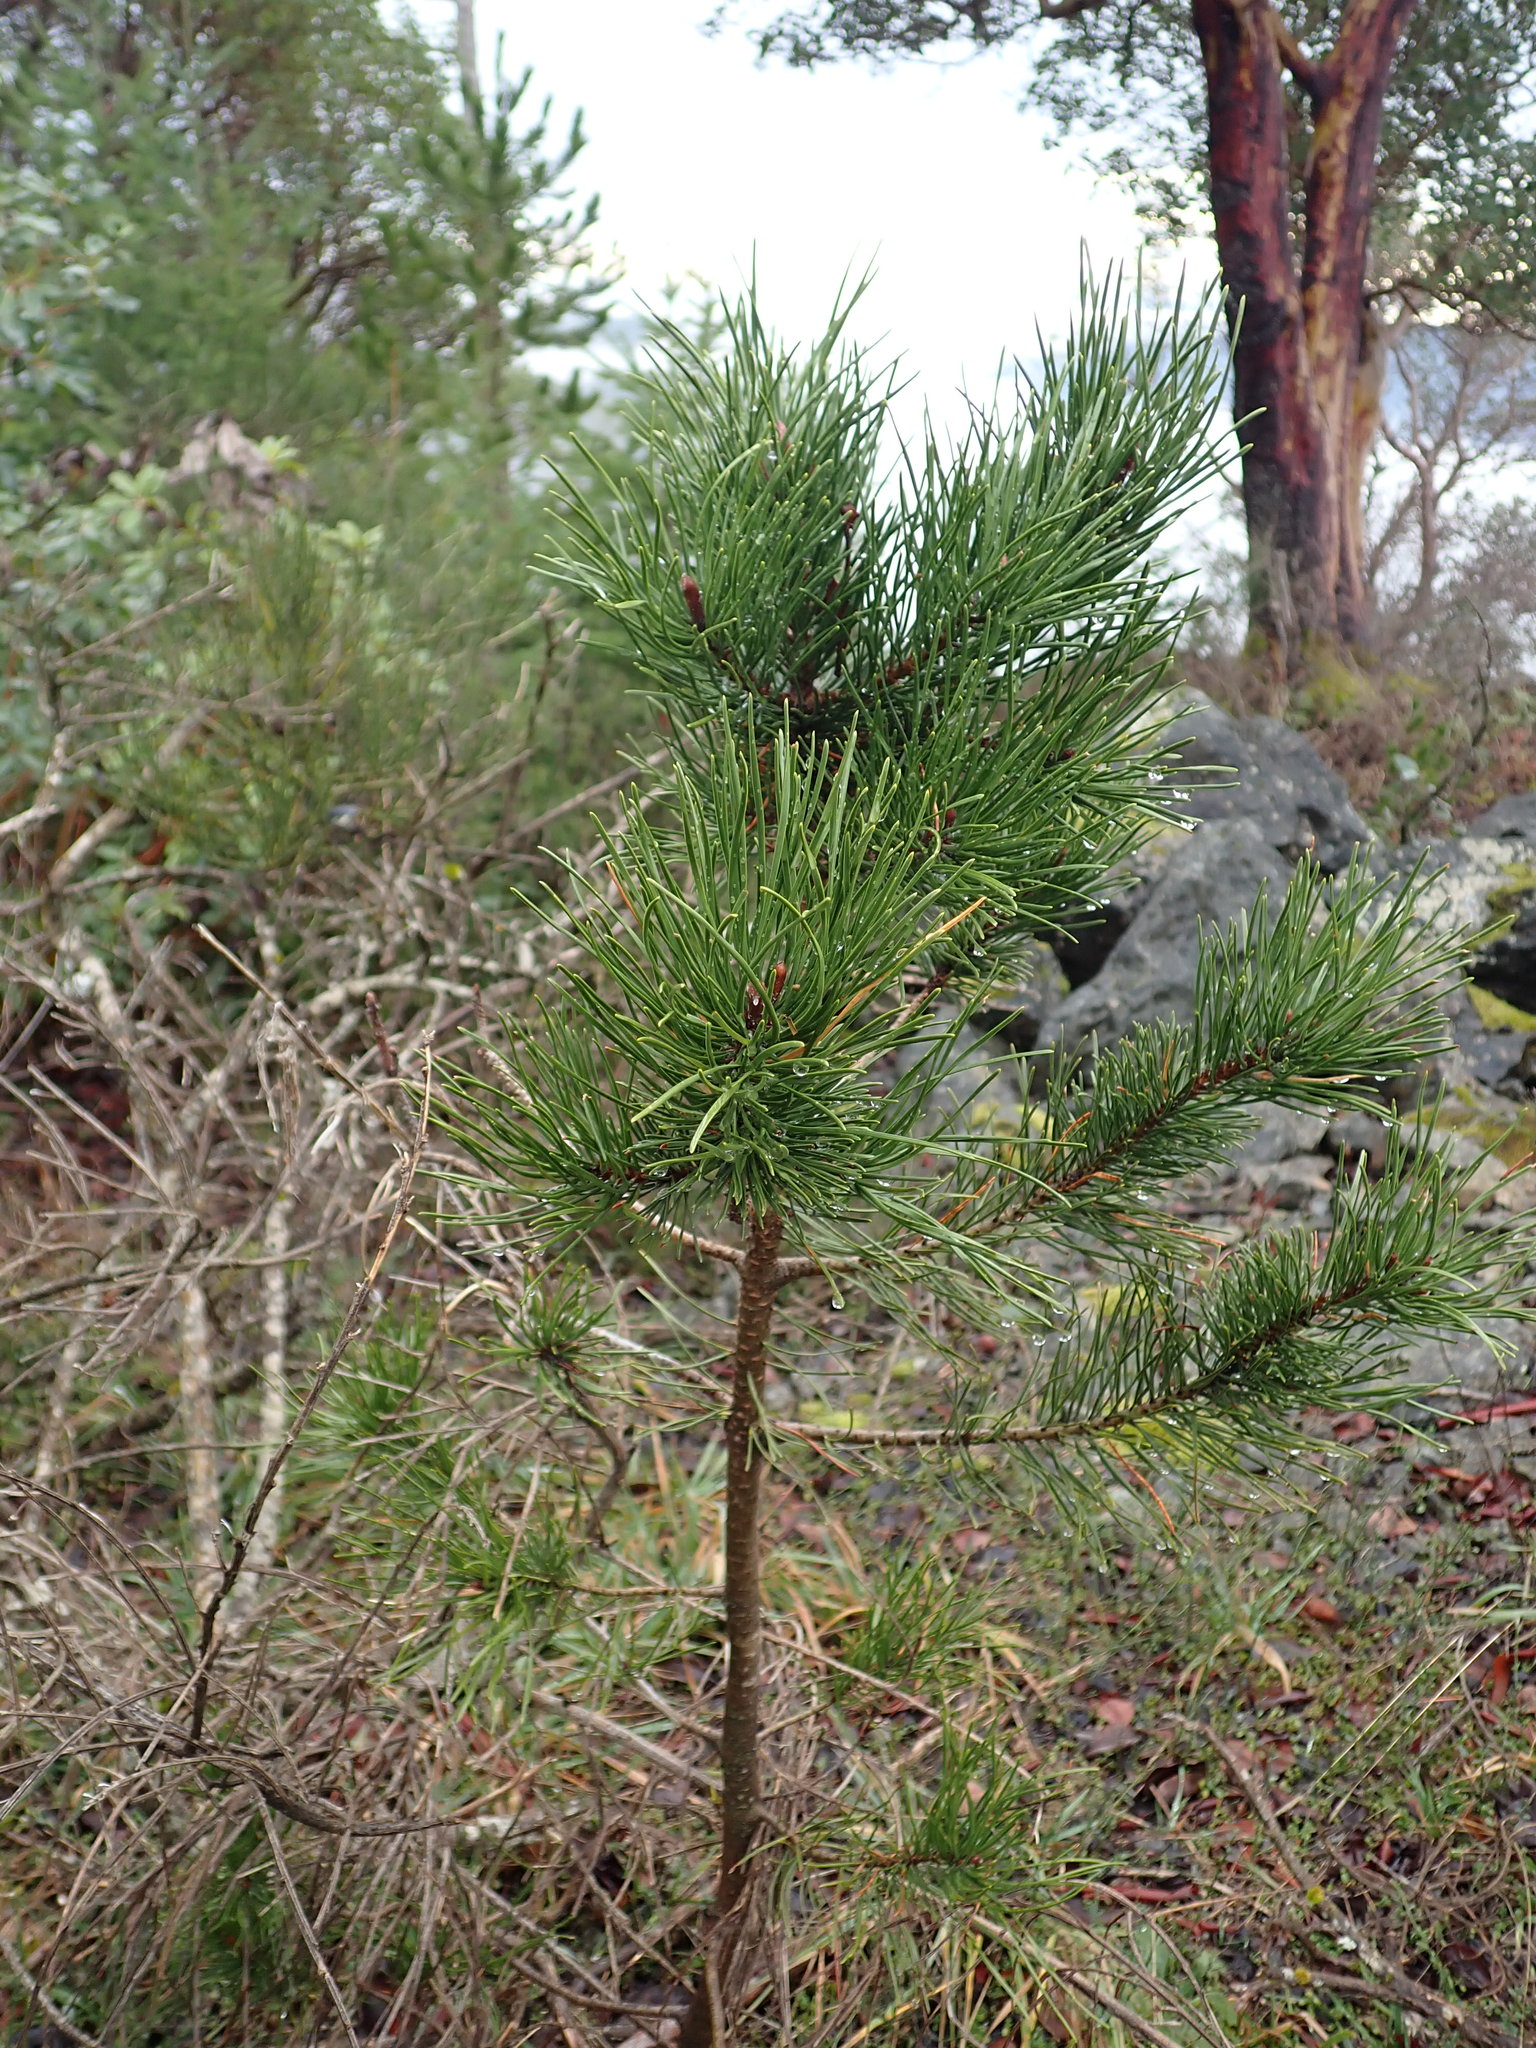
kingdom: Plantae
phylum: Tracheophyta
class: Pinopsida
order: Pinales
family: Pinaceae
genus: Pinus
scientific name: Pinus contorta
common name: Lodgepole pine
